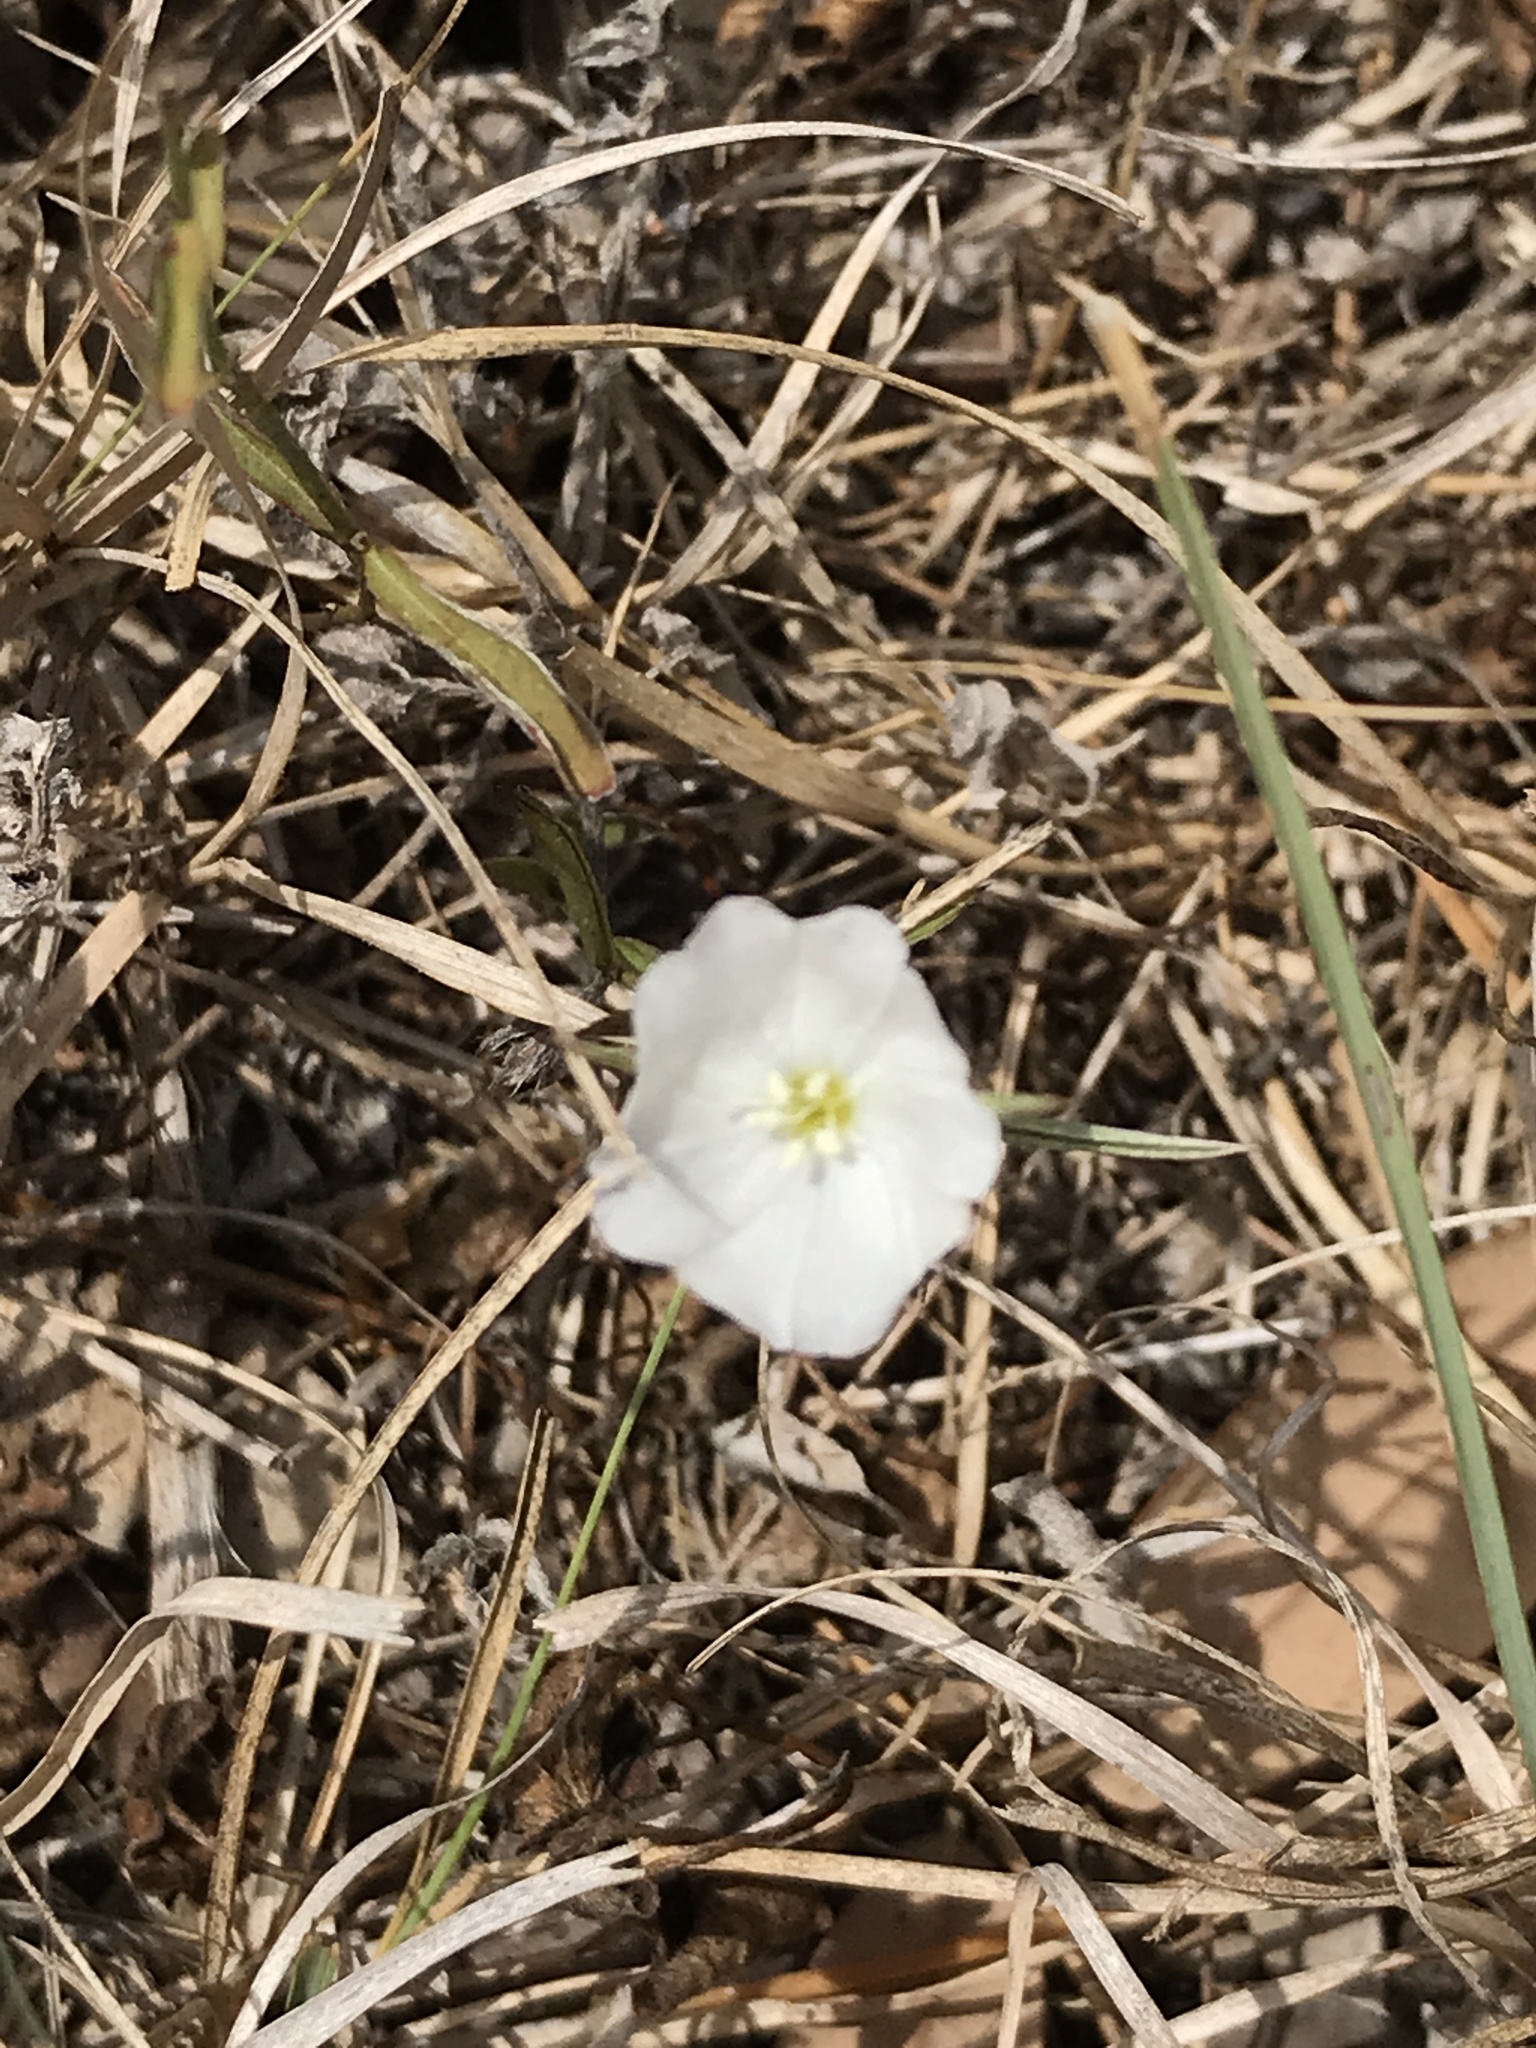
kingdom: Plantae
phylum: Tracheophyta
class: Magnoliopsida
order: Solanales
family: Convolvulaceae
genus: Evolvulus
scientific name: Evolvulus sericeus
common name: Blue dots
